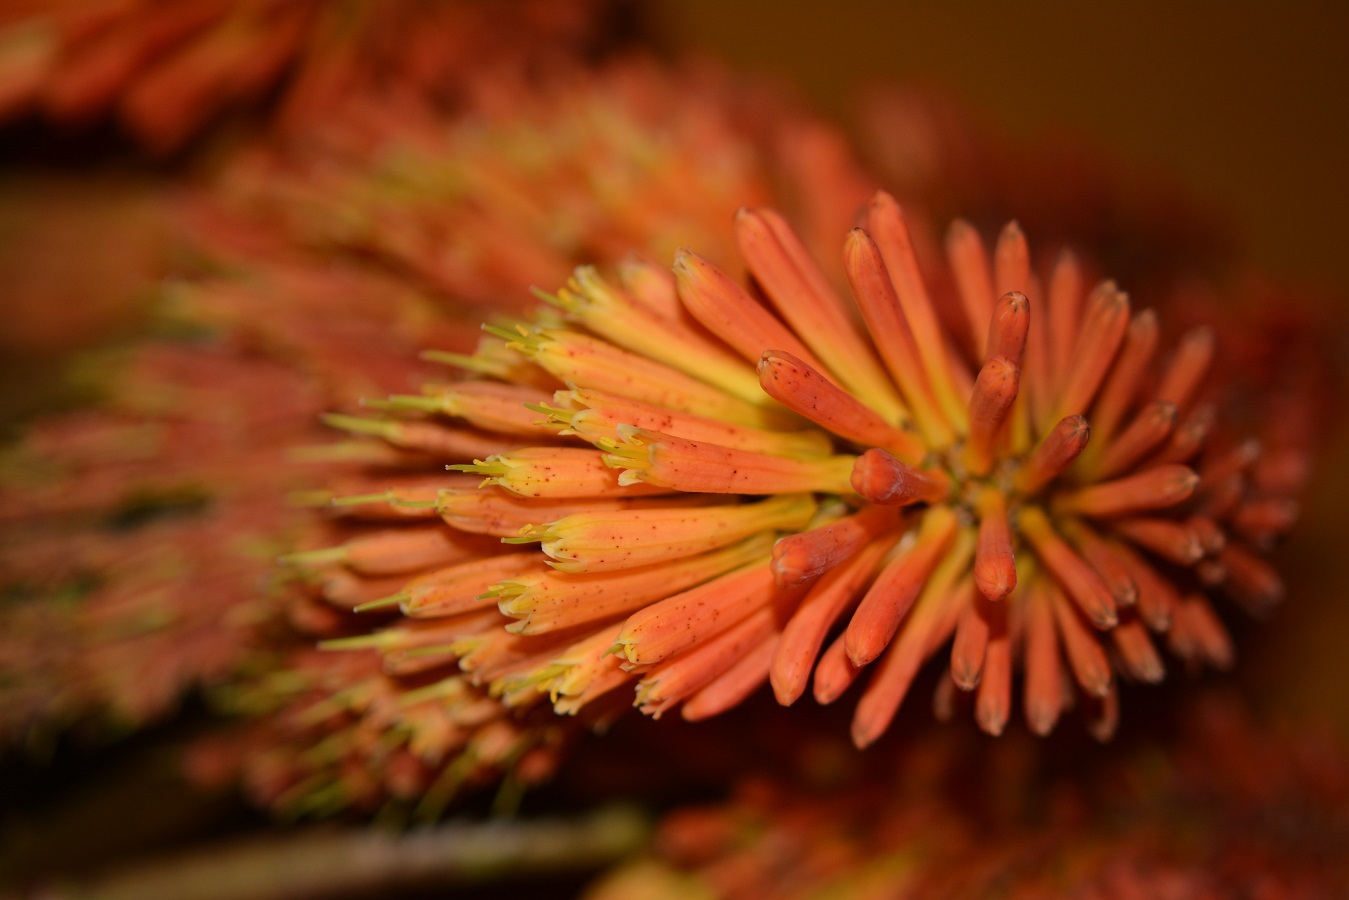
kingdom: Plantae
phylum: Tracheophyta
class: Liliopsida
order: Asparagales
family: Asphodelaceae
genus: Kniphofia
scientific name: Kniphofia uvaria
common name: Red-hot-poker
